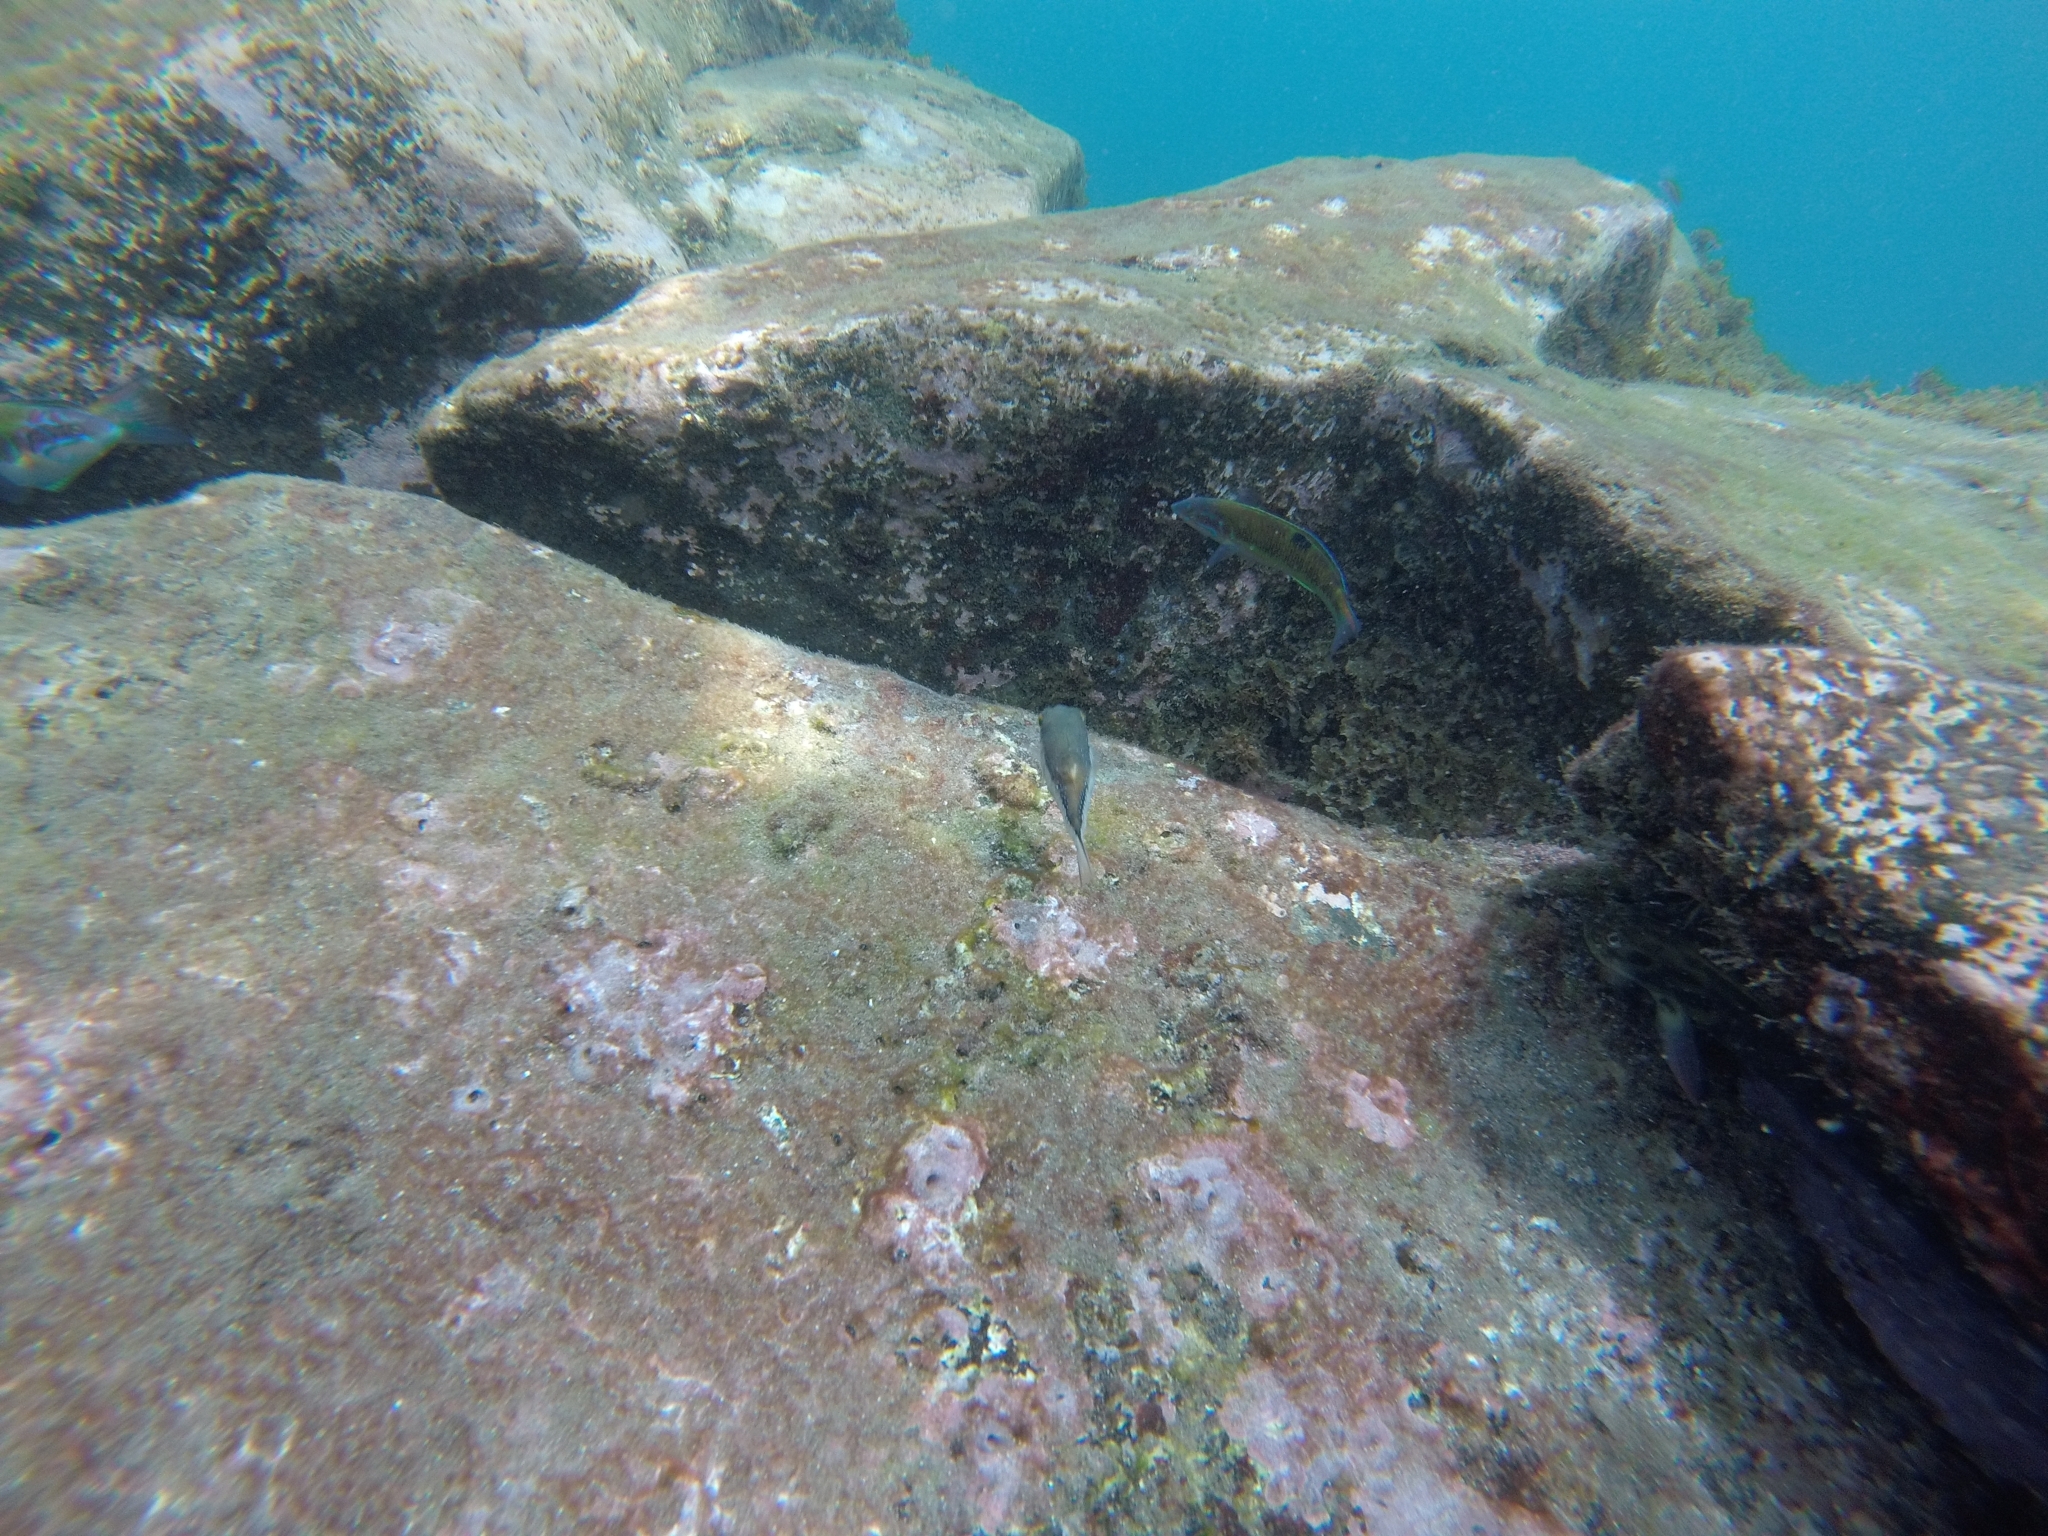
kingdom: Animalia
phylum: Chordata
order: Perciformes
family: Labridae
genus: Thalassoma
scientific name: Thalassoma pavo
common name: Ornate wrasse
